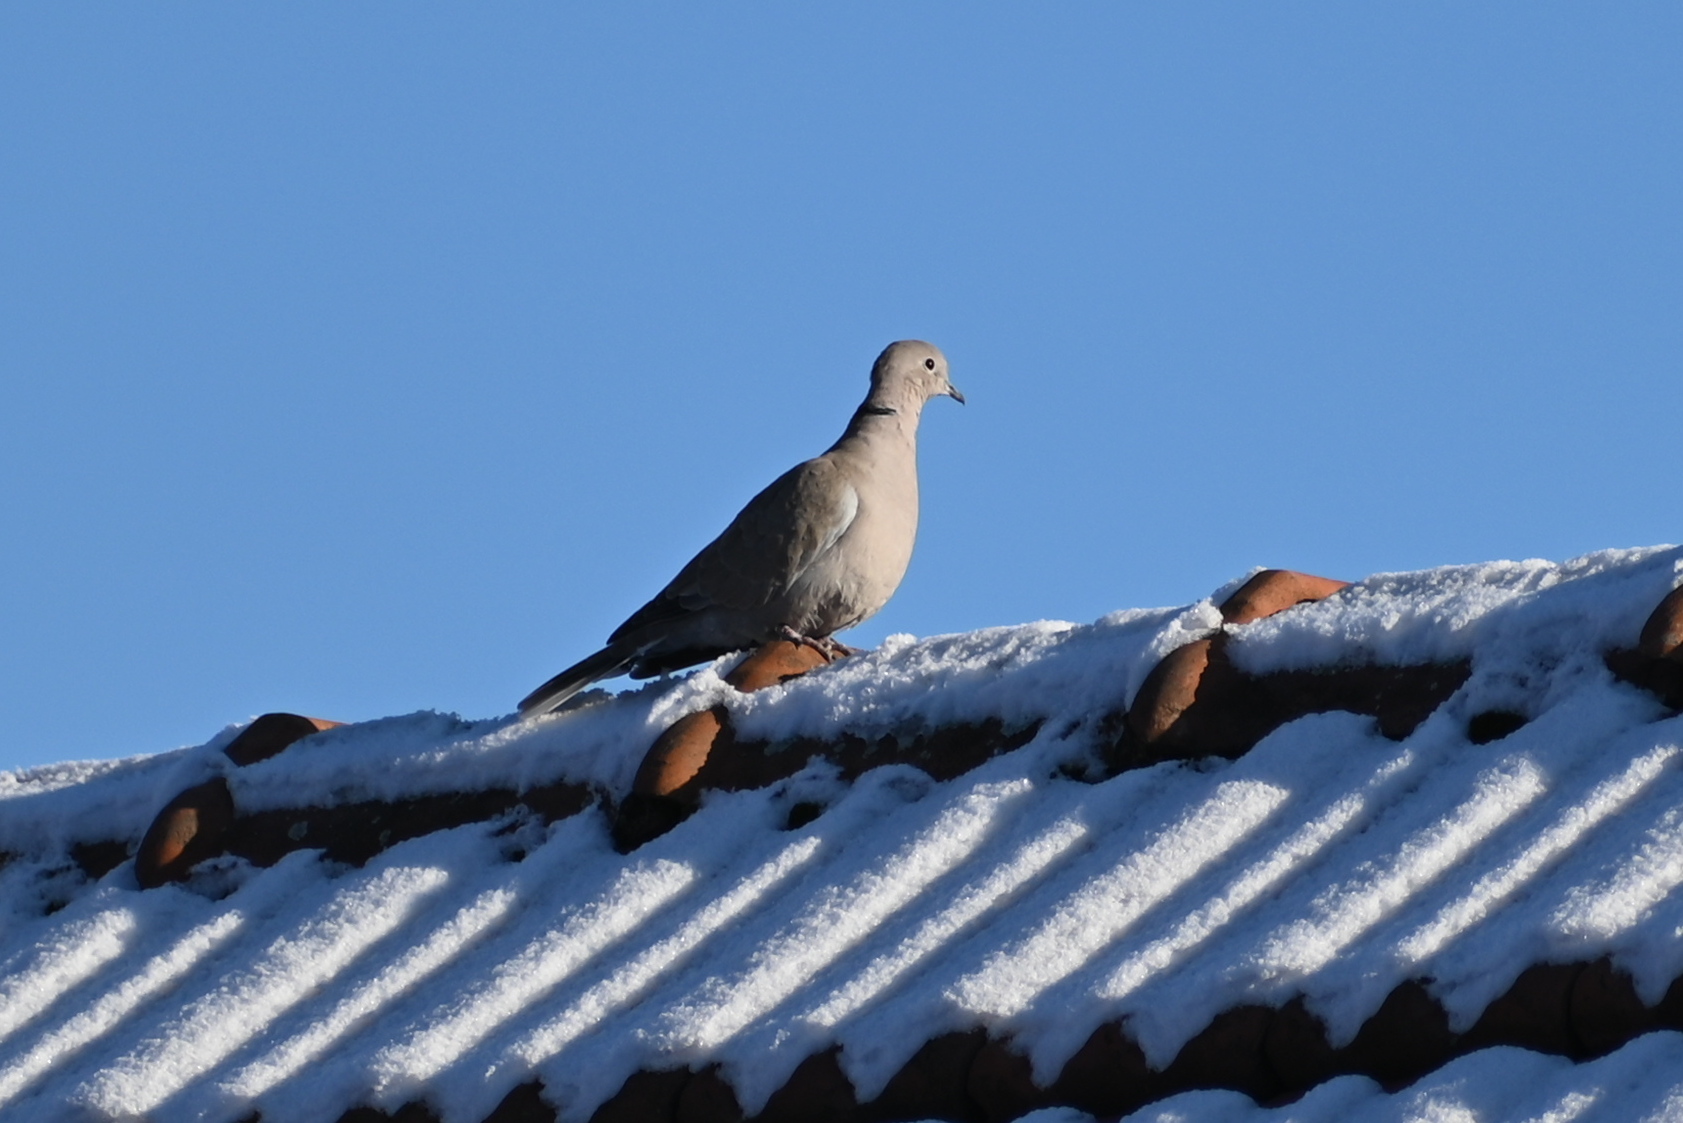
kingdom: Animalia
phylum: Chordata
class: Aves
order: Columbiformes
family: Columbidae
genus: Streptopelia
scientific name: Streptopelia decaocto
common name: Eurasian collared dove
